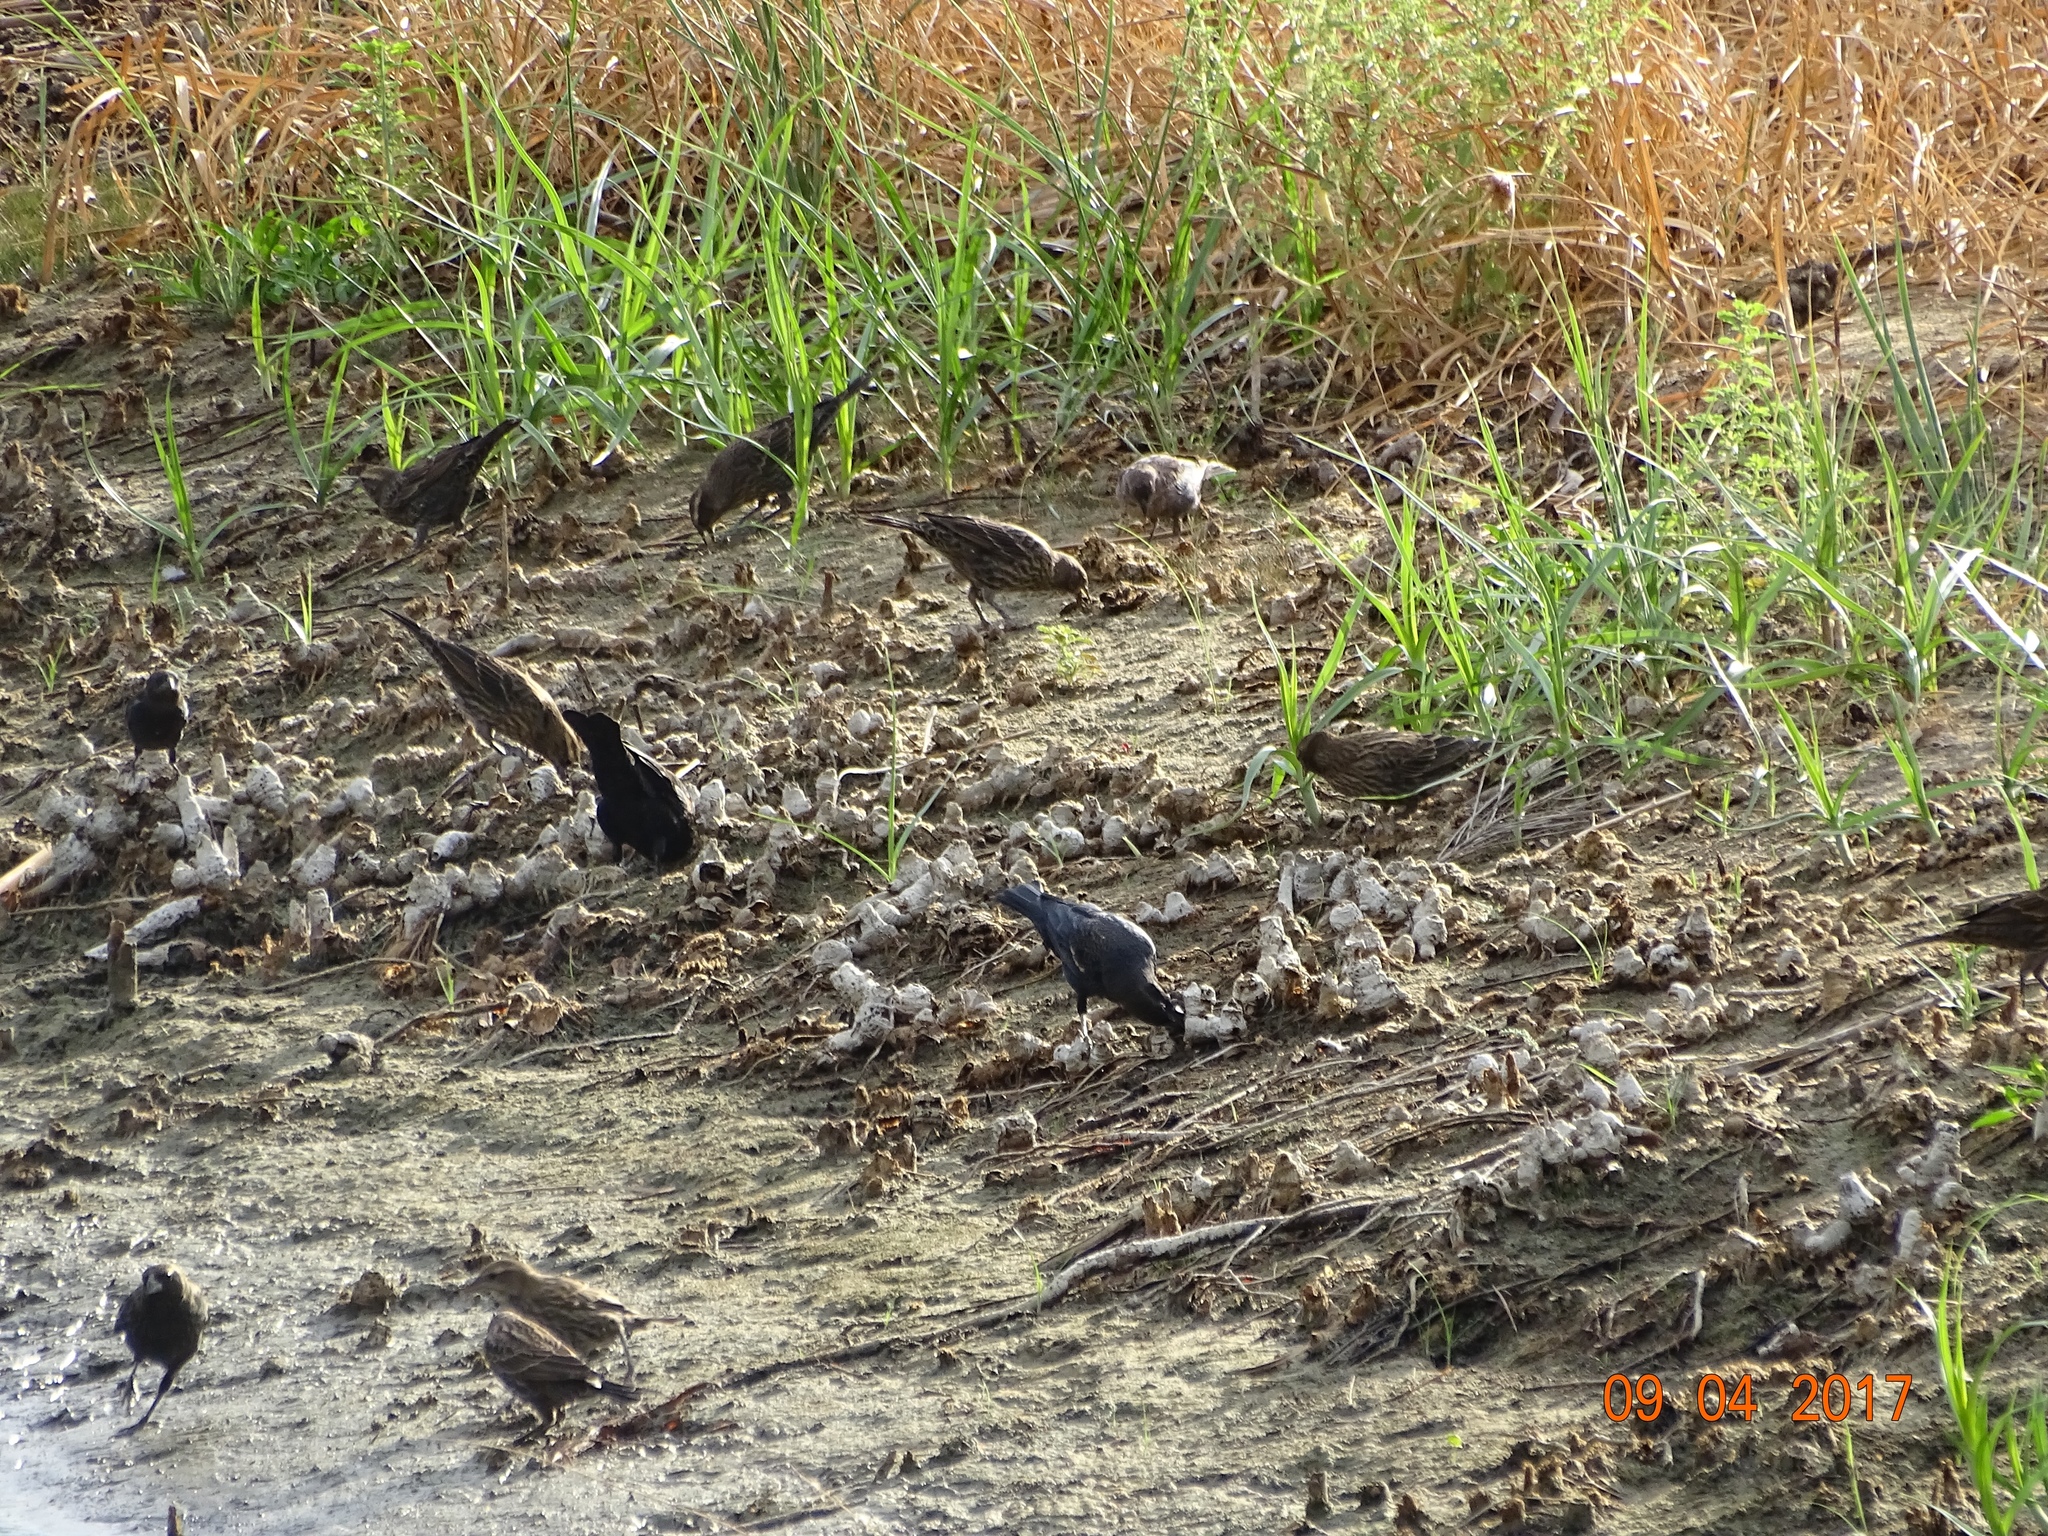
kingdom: Animalia
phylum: Chordata
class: Aves
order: Passeriformes
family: Icteridae
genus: Agelaius
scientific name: Agelaius phoeniceus
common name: Red-winged blackbird
